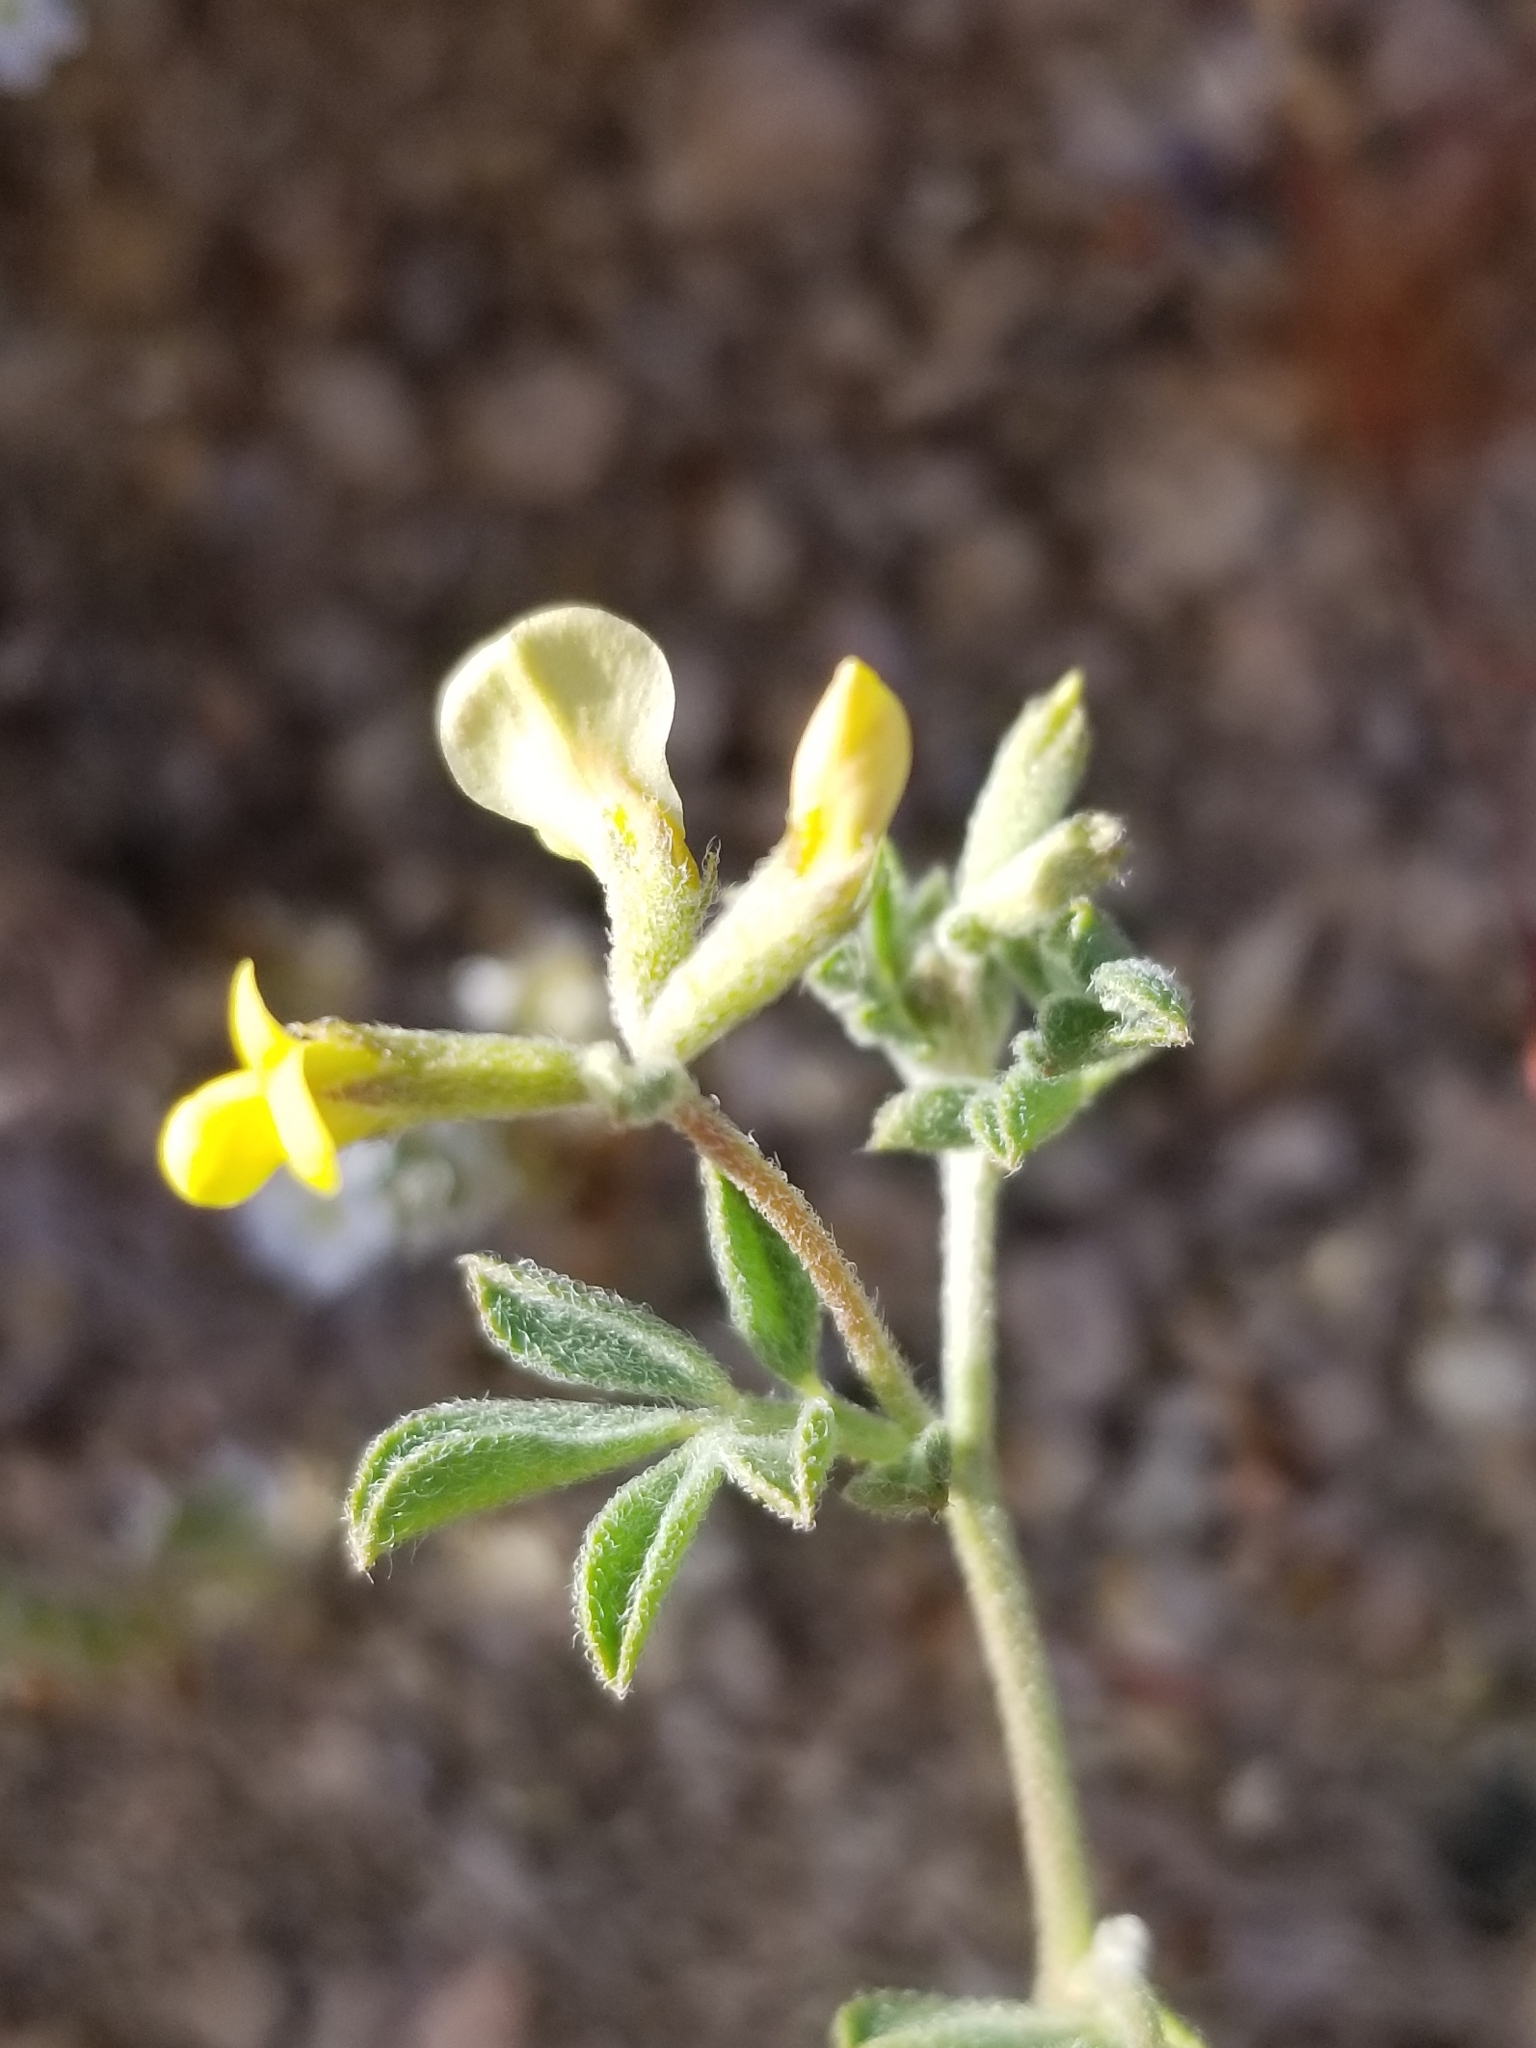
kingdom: Plantae
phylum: Tracheophyta
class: Magnoliopsida
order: Fabales
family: Fabaceae
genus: Acmispon
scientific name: Acmispon strigosus
